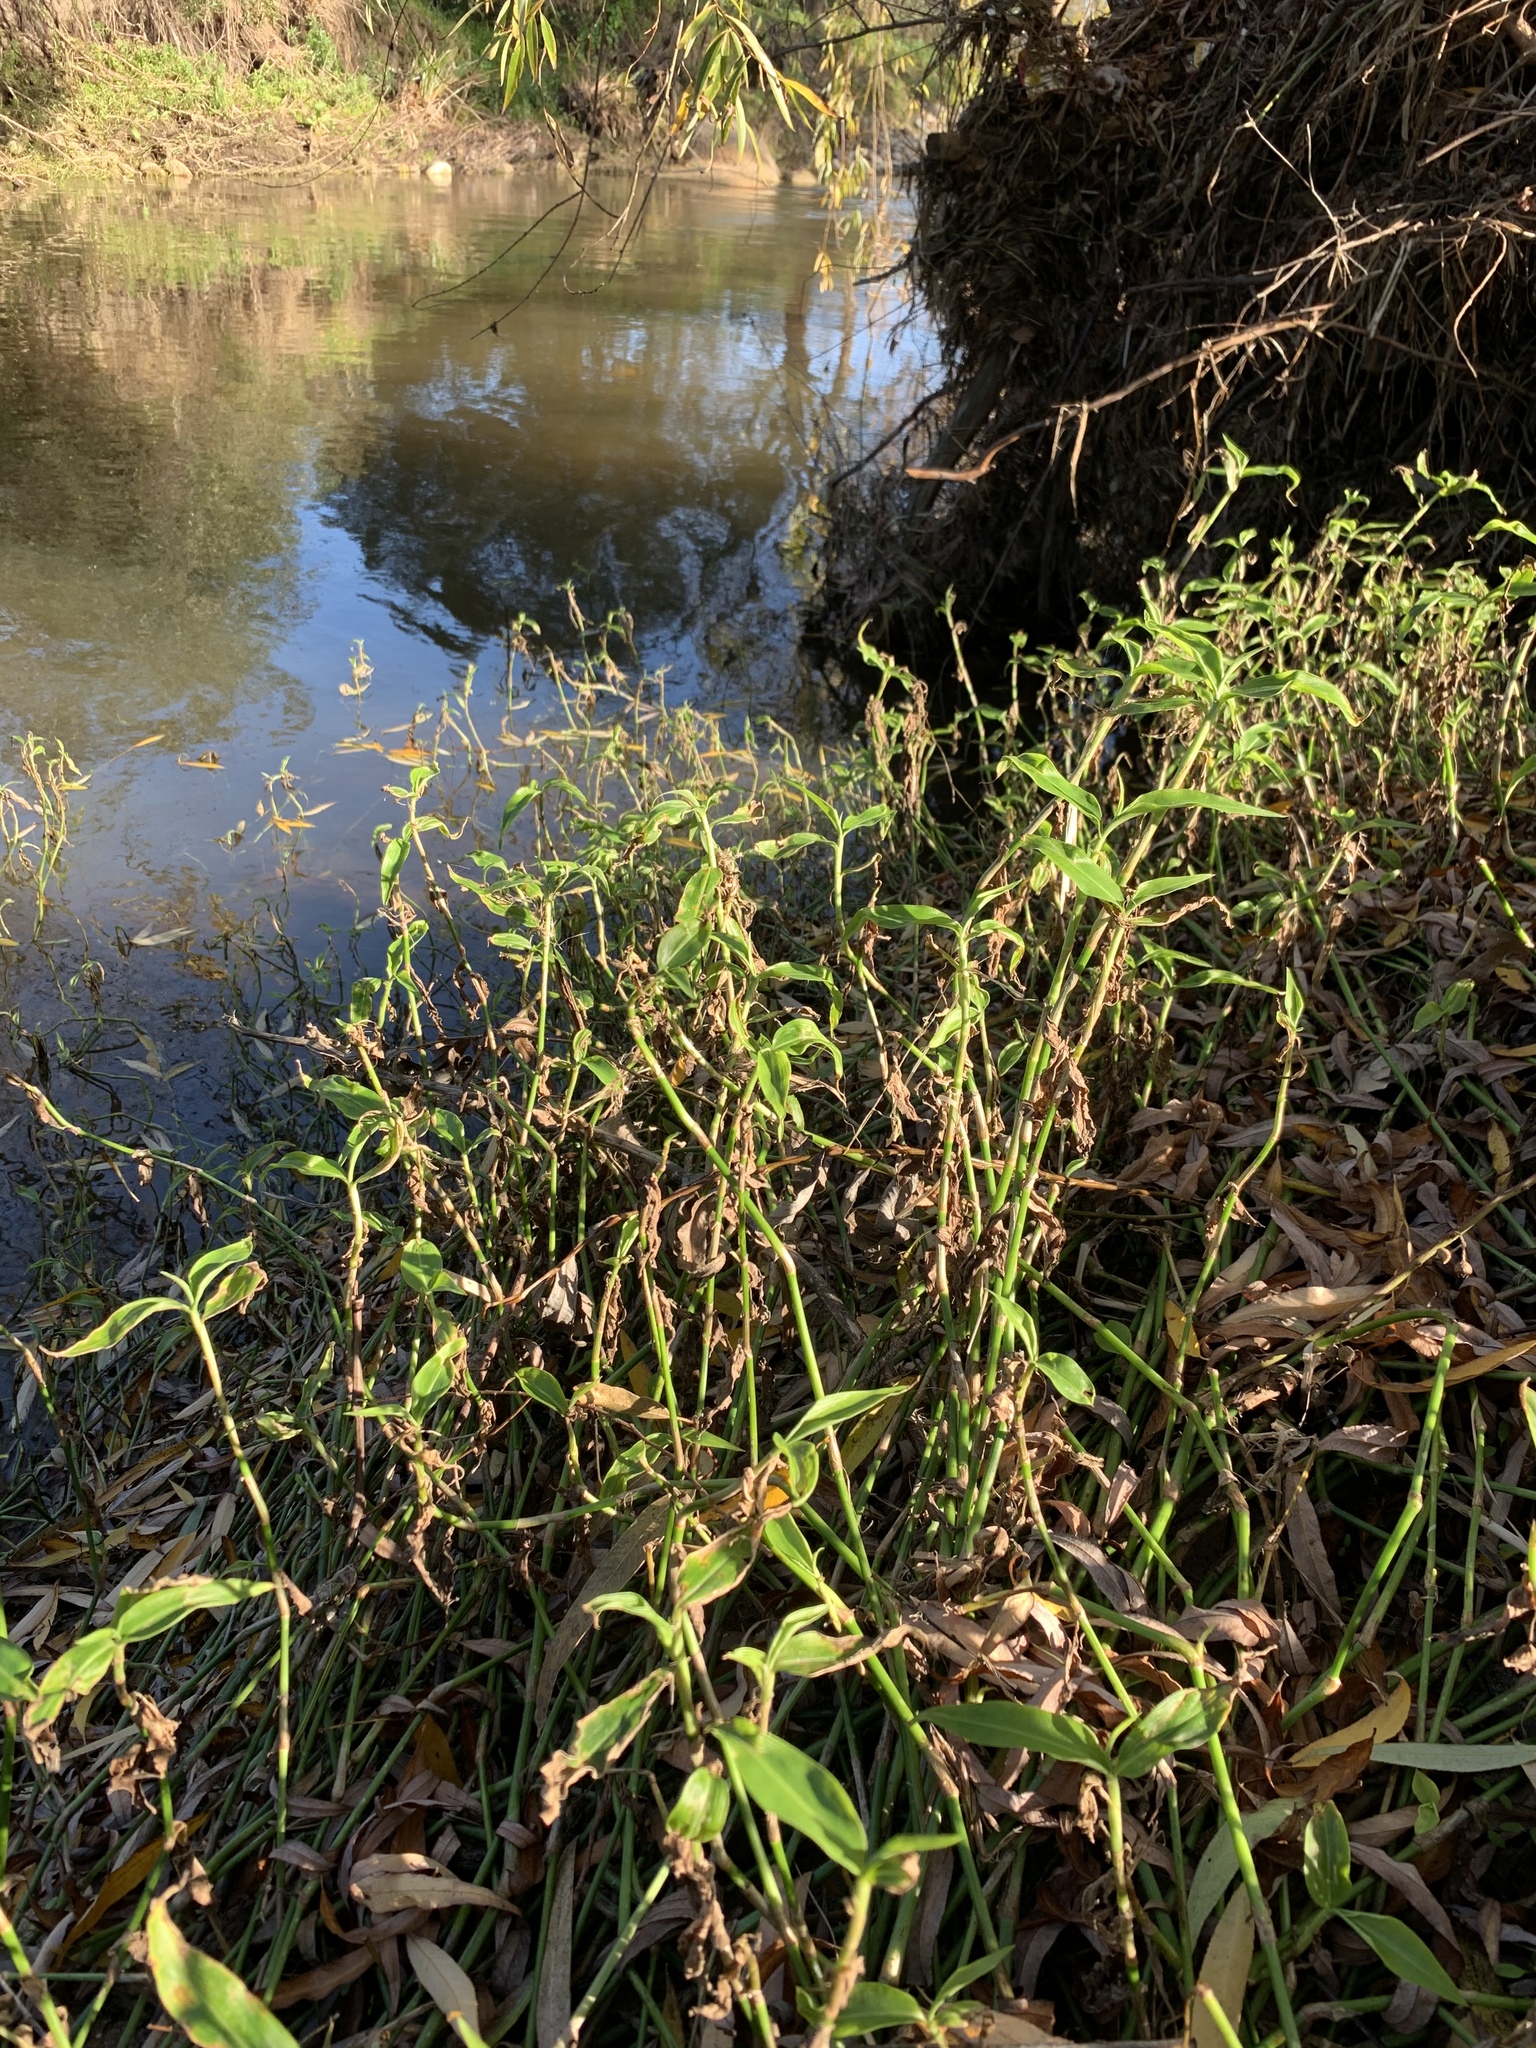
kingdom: Plantae
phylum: Tracheophyta
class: Liliopsida
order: Commelinales
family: Commelinaceae
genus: Commelina
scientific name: Commelina diffusa
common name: Climbing dayflower
